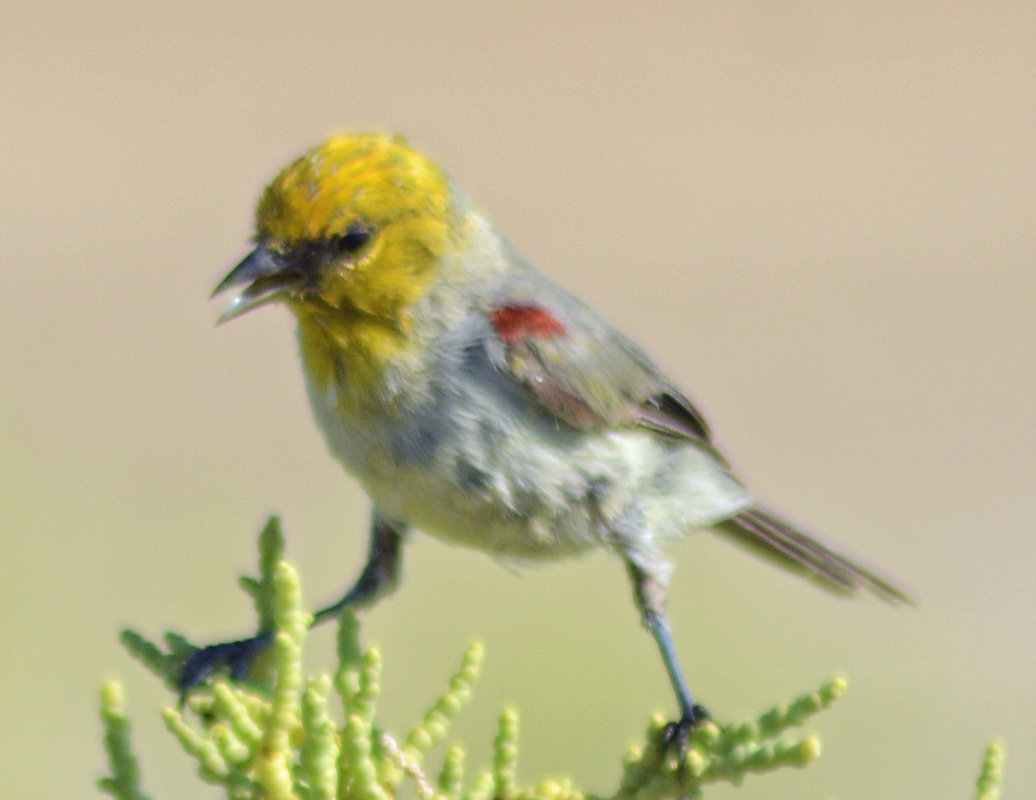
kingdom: Animalia
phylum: Chordata
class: Aves
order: Passeriformes
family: Remizidae
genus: Auriparus
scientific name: Auriparus flaviceps
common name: Verdin
